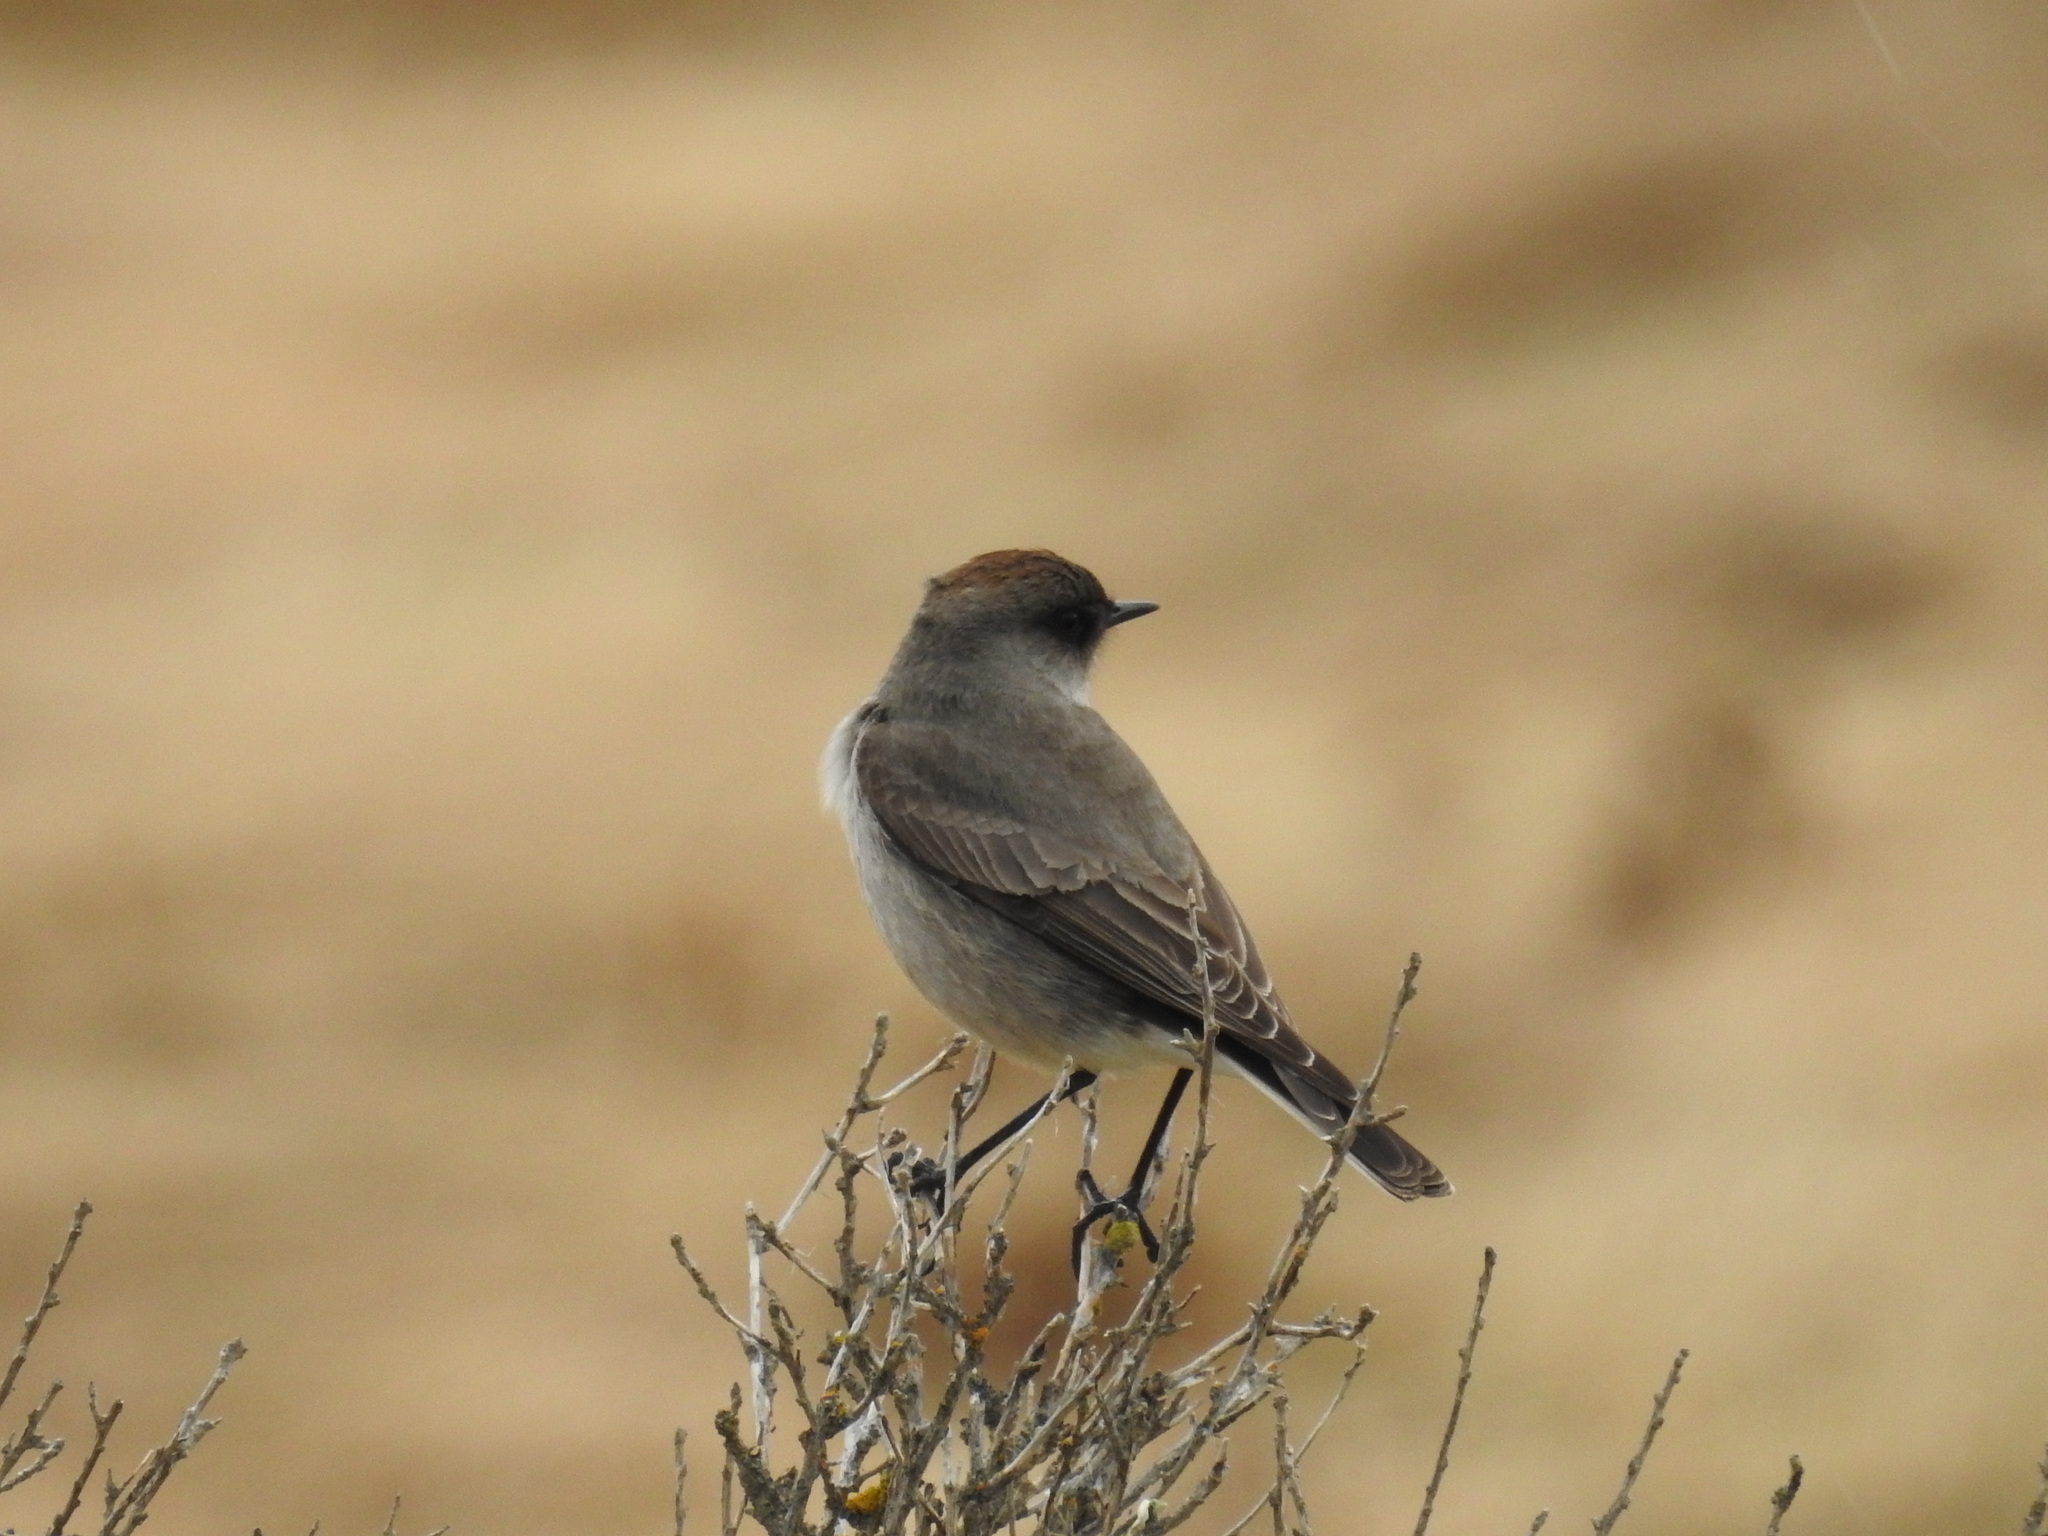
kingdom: Animalia
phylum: Chordata
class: Aves
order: Passeriformes
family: Tyrannidae
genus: Muscisaxicola
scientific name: Muscisaxicola maclovianus
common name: Dark-faced ground tyrant
